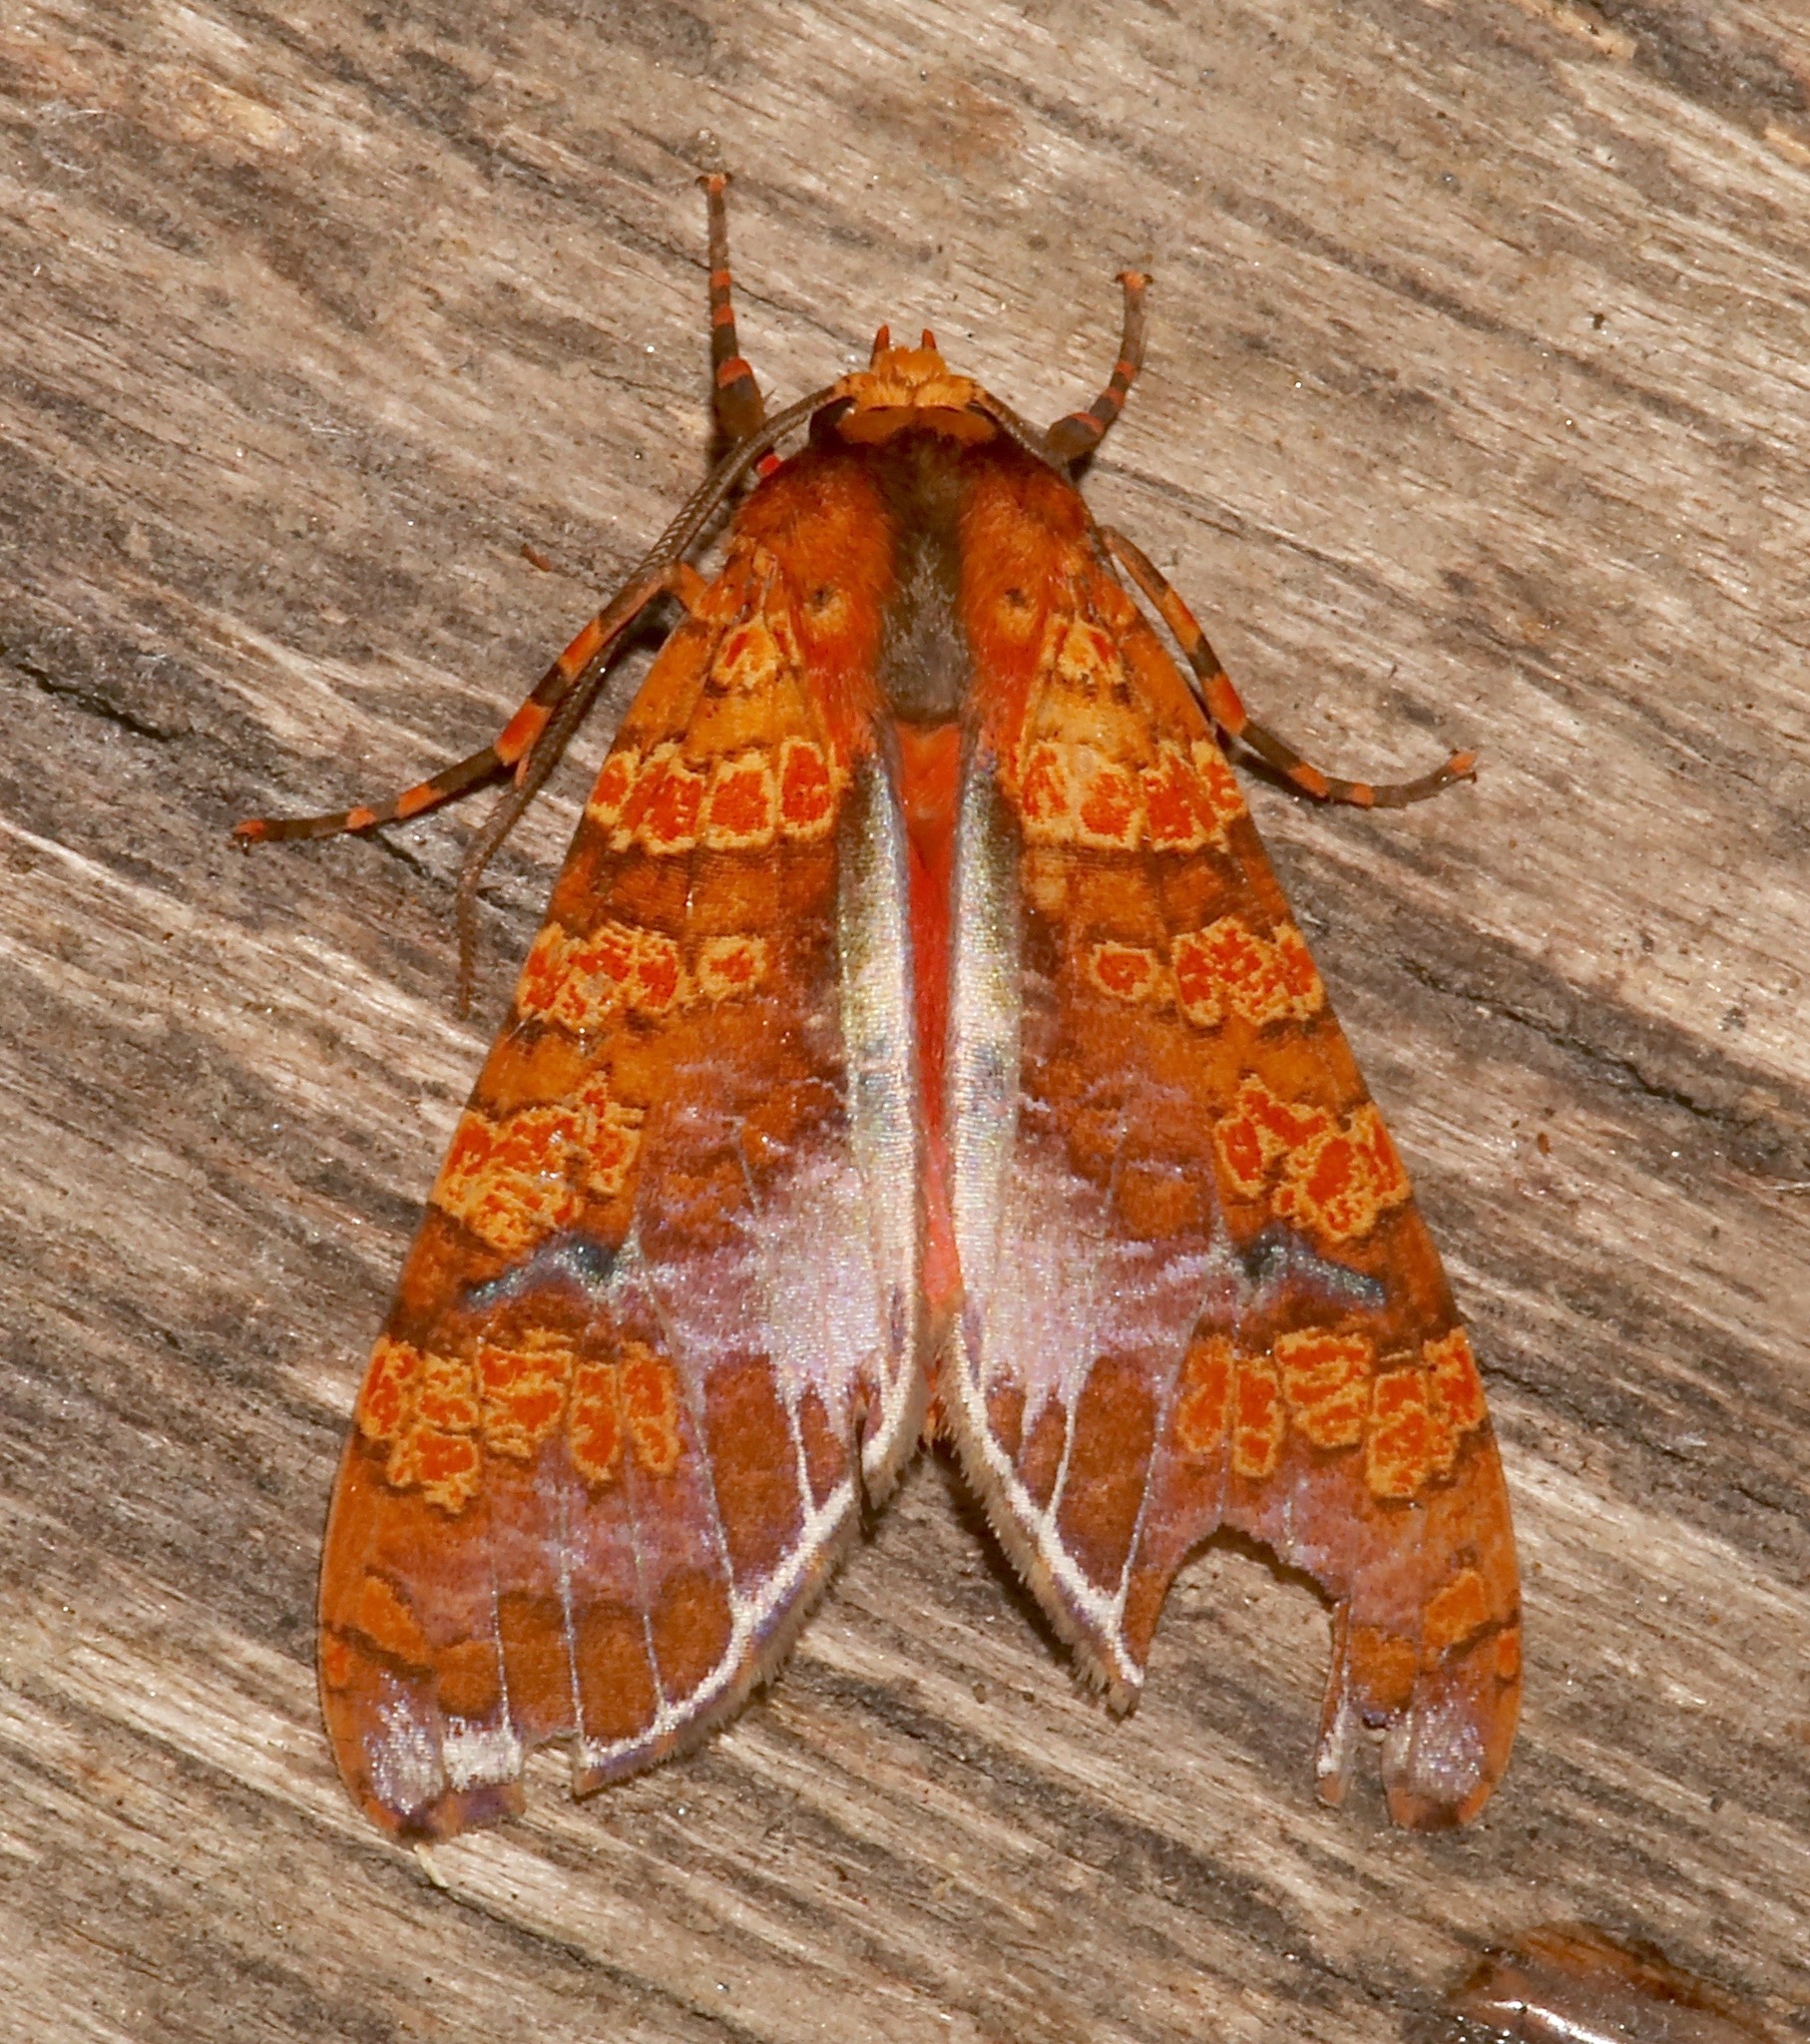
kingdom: Animalia
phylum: Arthropoda
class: Insecta
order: Lepidoptera
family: Erebidae
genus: Graphea
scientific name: Graphea marmorea
